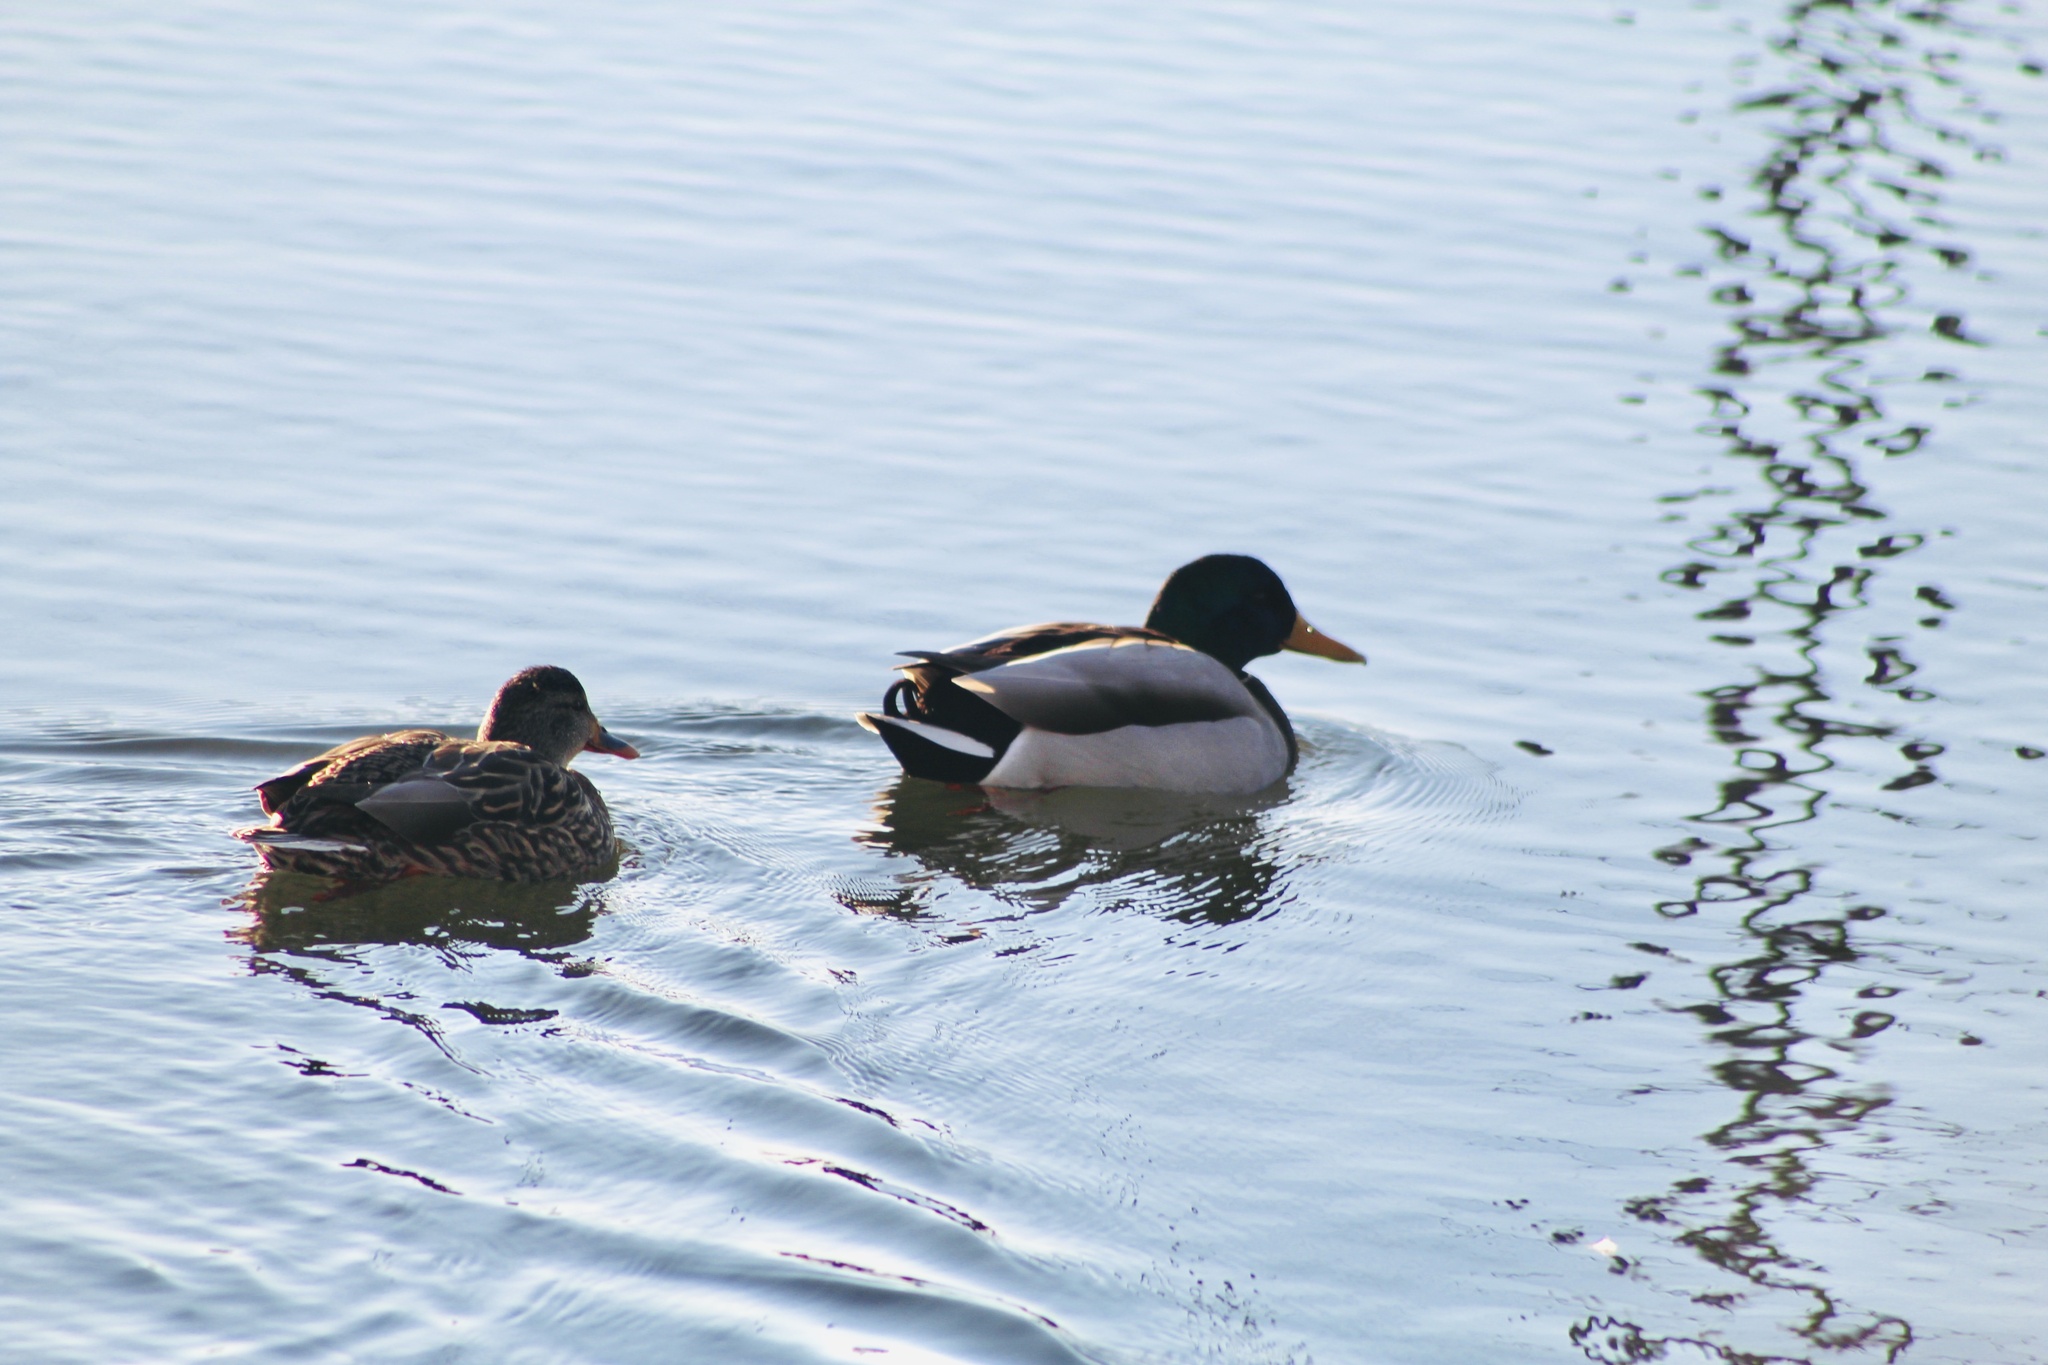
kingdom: Animalia
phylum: Chordata
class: Aves
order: Anseriformes
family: Anatidae
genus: Anas
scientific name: Anas platyrhynchos
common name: Mallard
